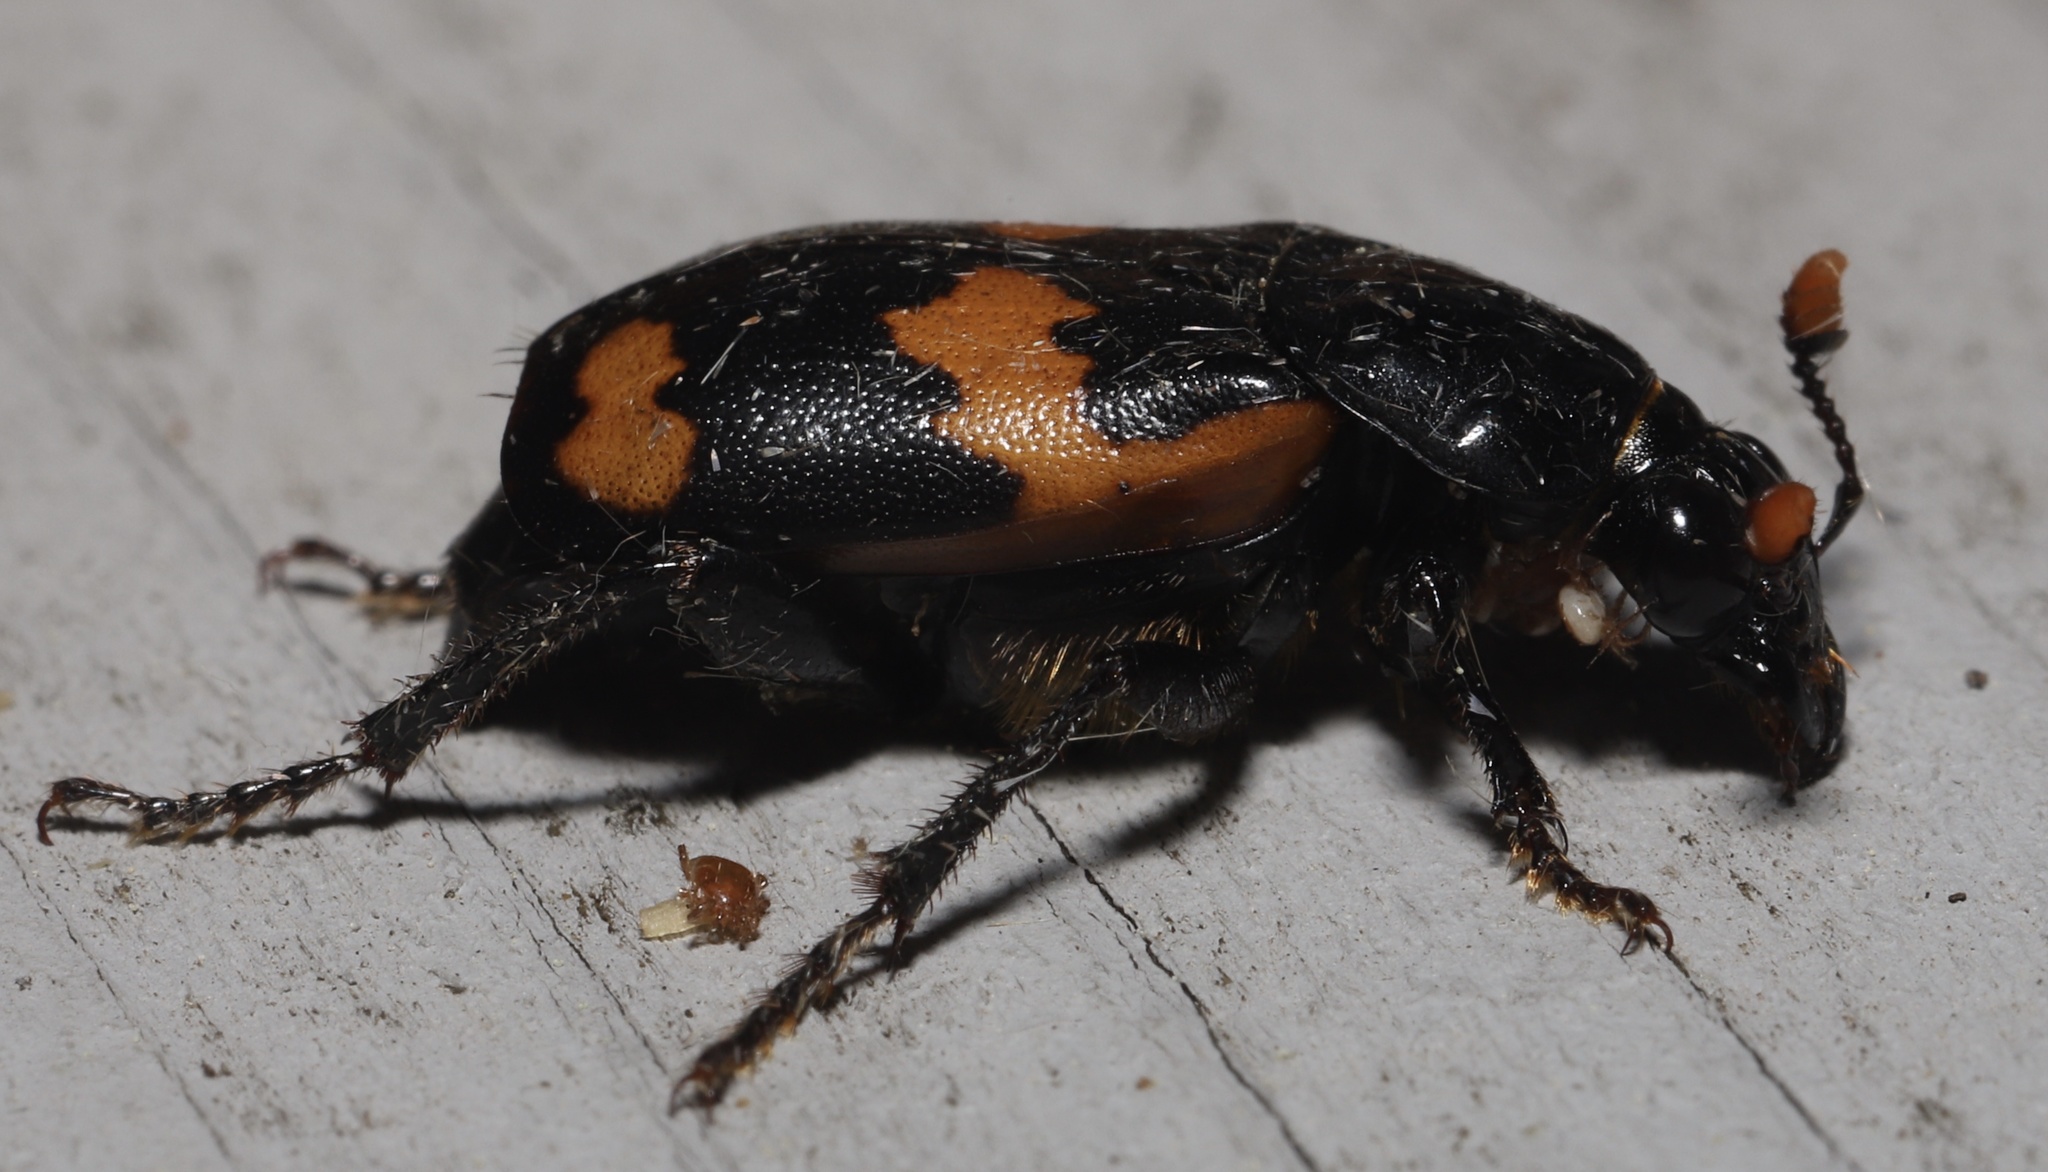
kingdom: Animalia
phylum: Arthropoda
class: Insecta
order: Coleoptera
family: Staphylinidae
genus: Nicrophorus
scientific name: Nicrophorus sayi
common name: Say's burying beetle
